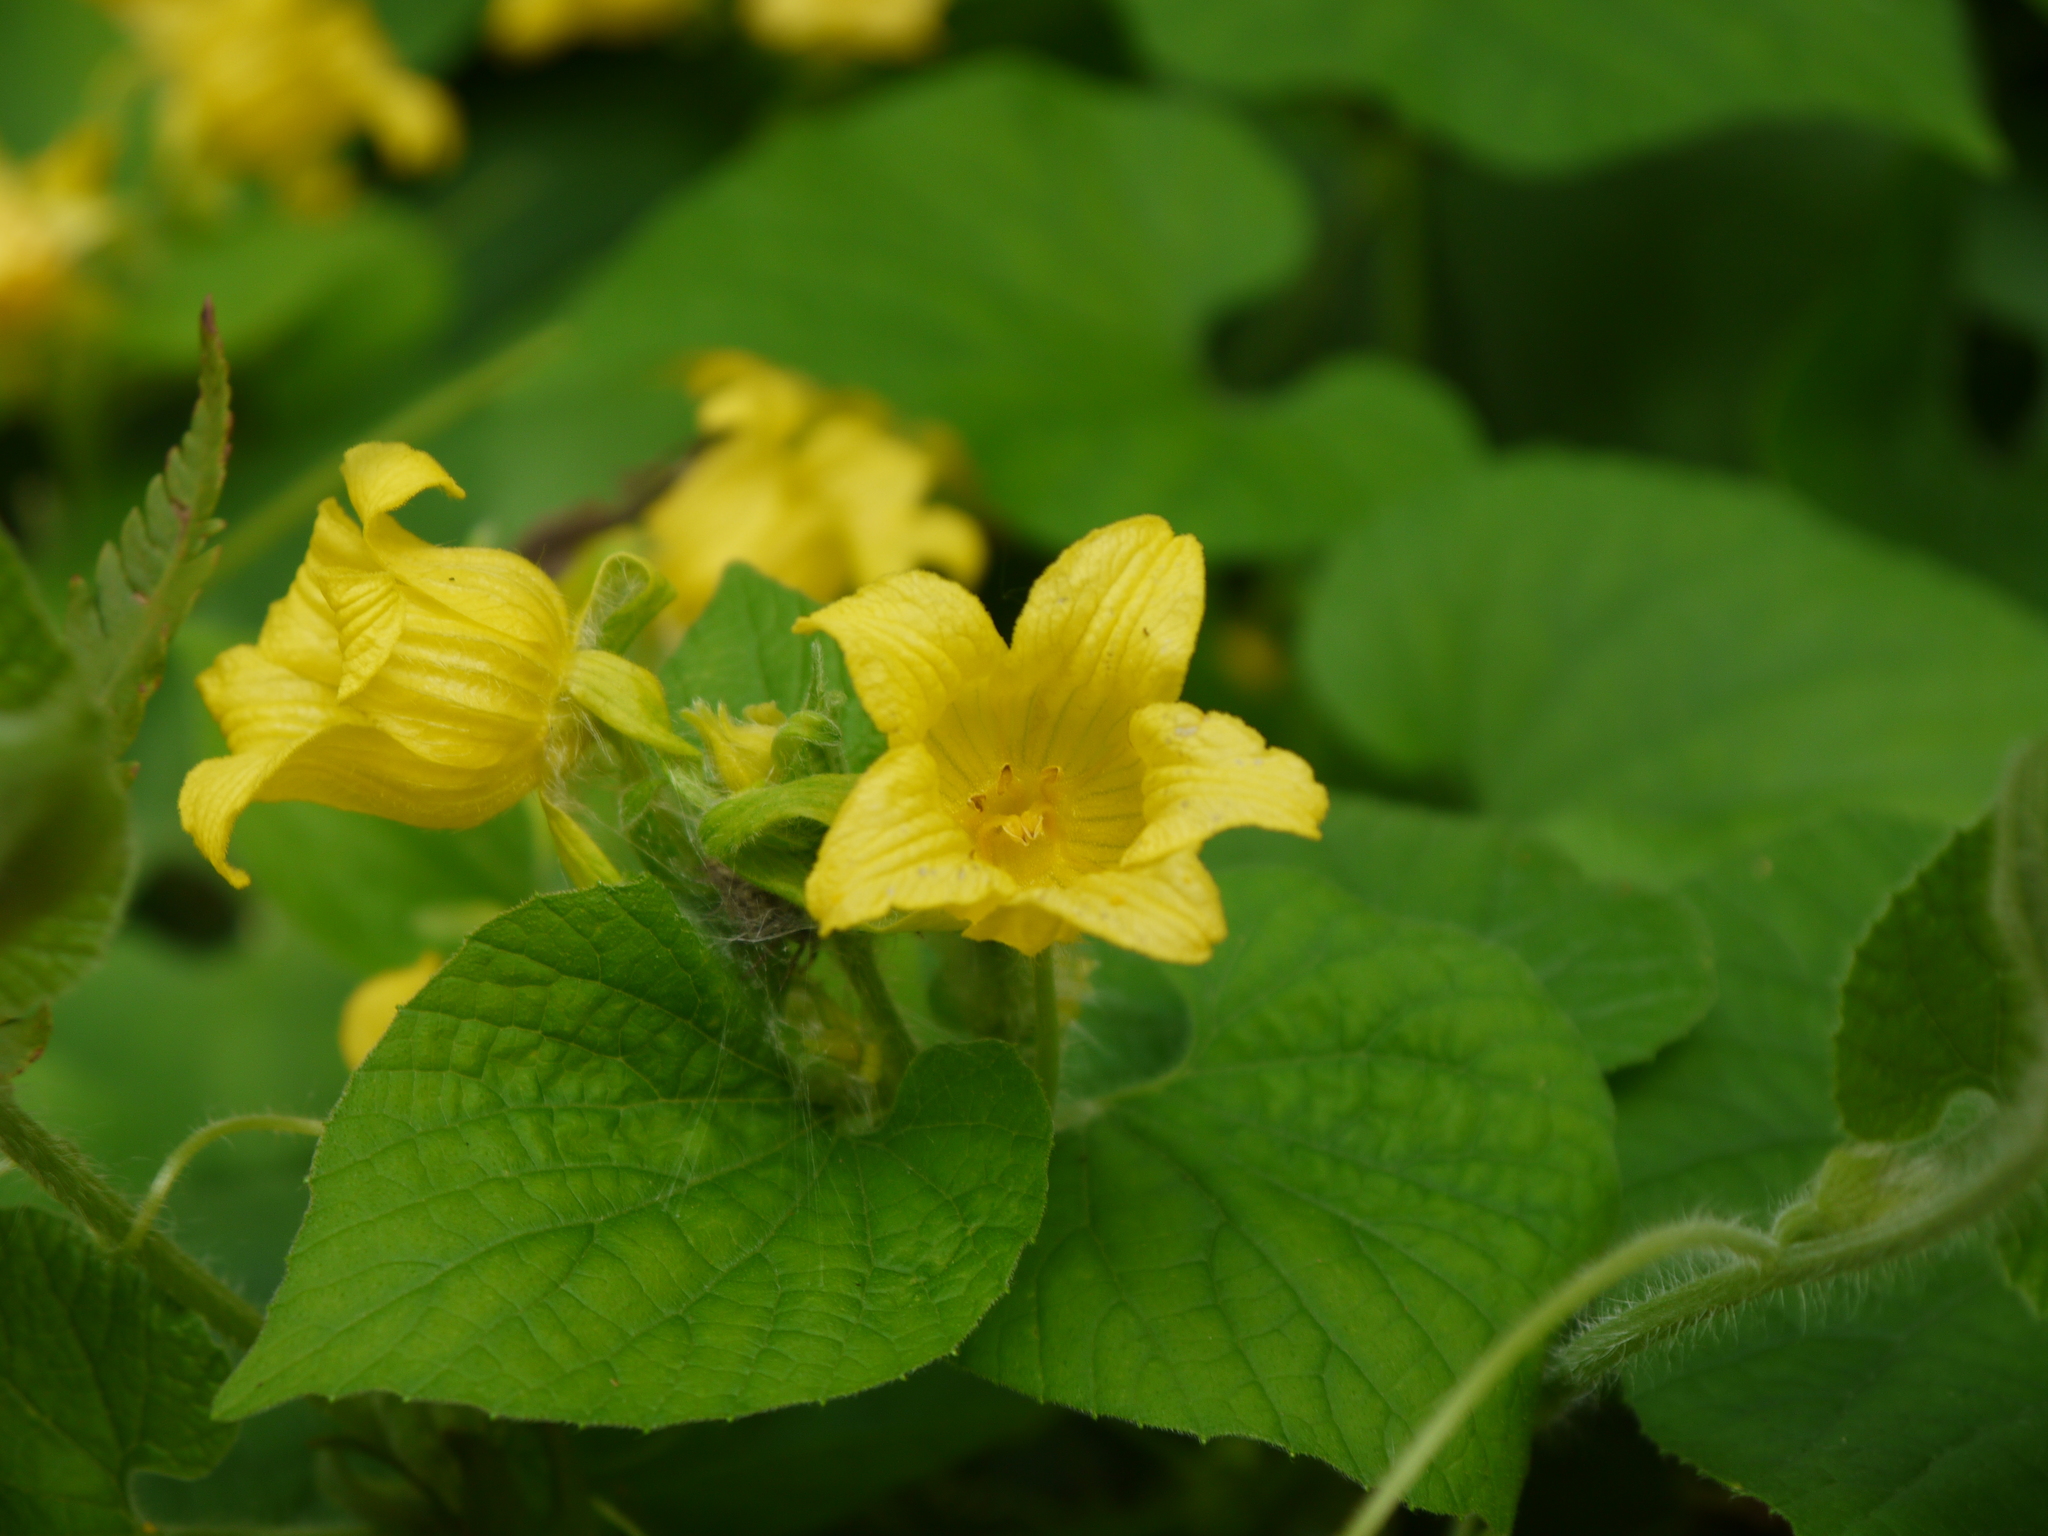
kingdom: Plantae
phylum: Tracheophyta
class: Magnoliopsida
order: Cucurbitales
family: Cucurbitaceae
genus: Cucurbita
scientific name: Cucurbita pepo
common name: Marrow
